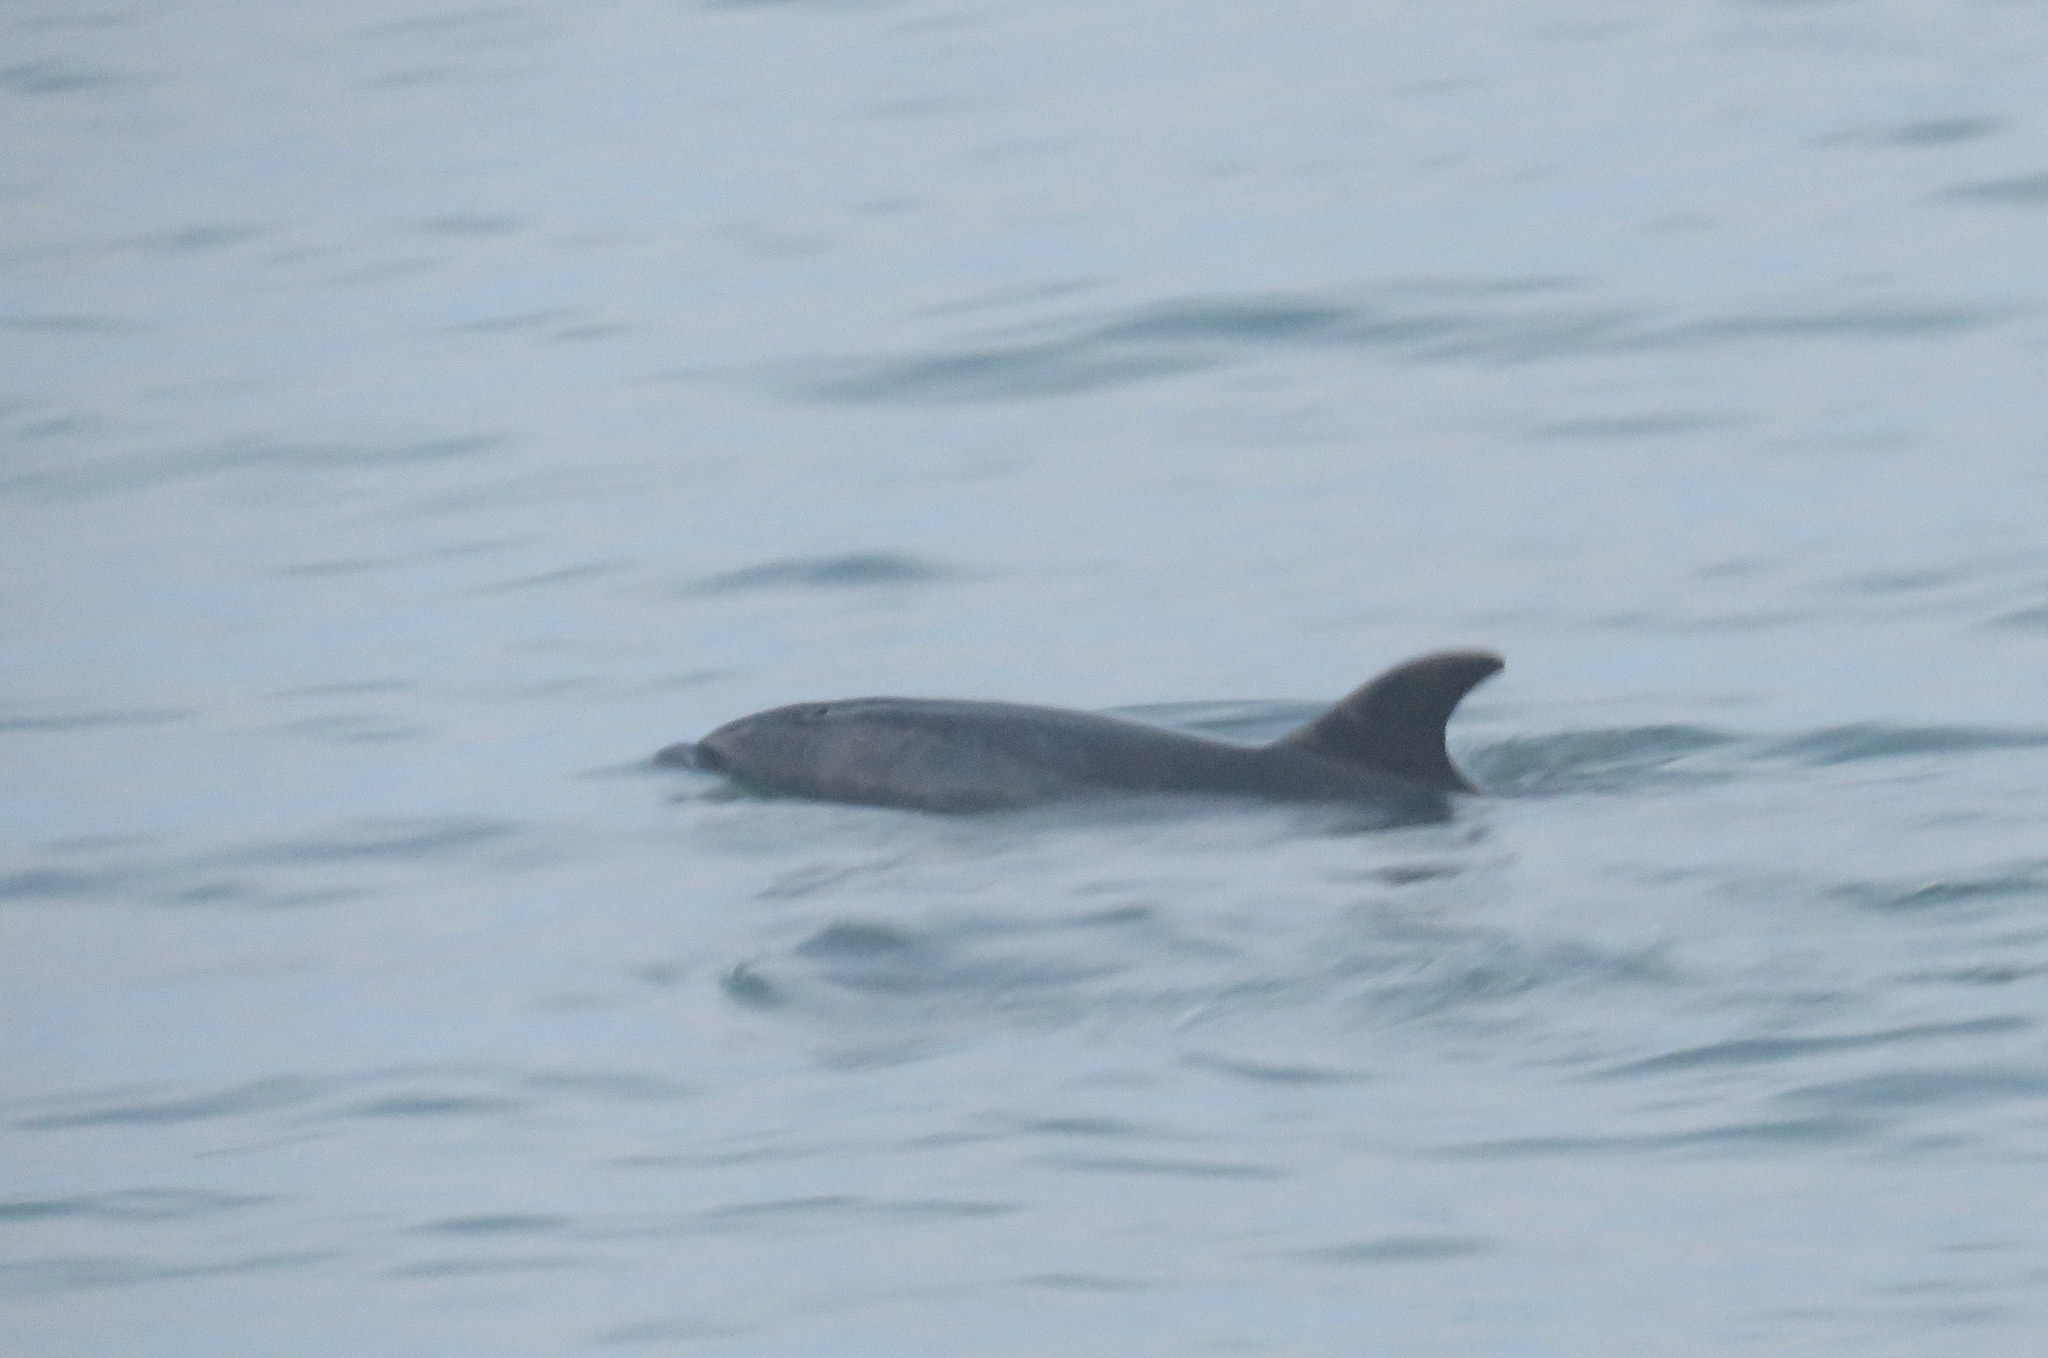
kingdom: Animalia
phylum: Chordata
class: Mammalia
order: Cetacea
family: Delphinidae
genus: Tursiops
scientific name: Tursiops truncatus
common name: Bottlenose dolphin
